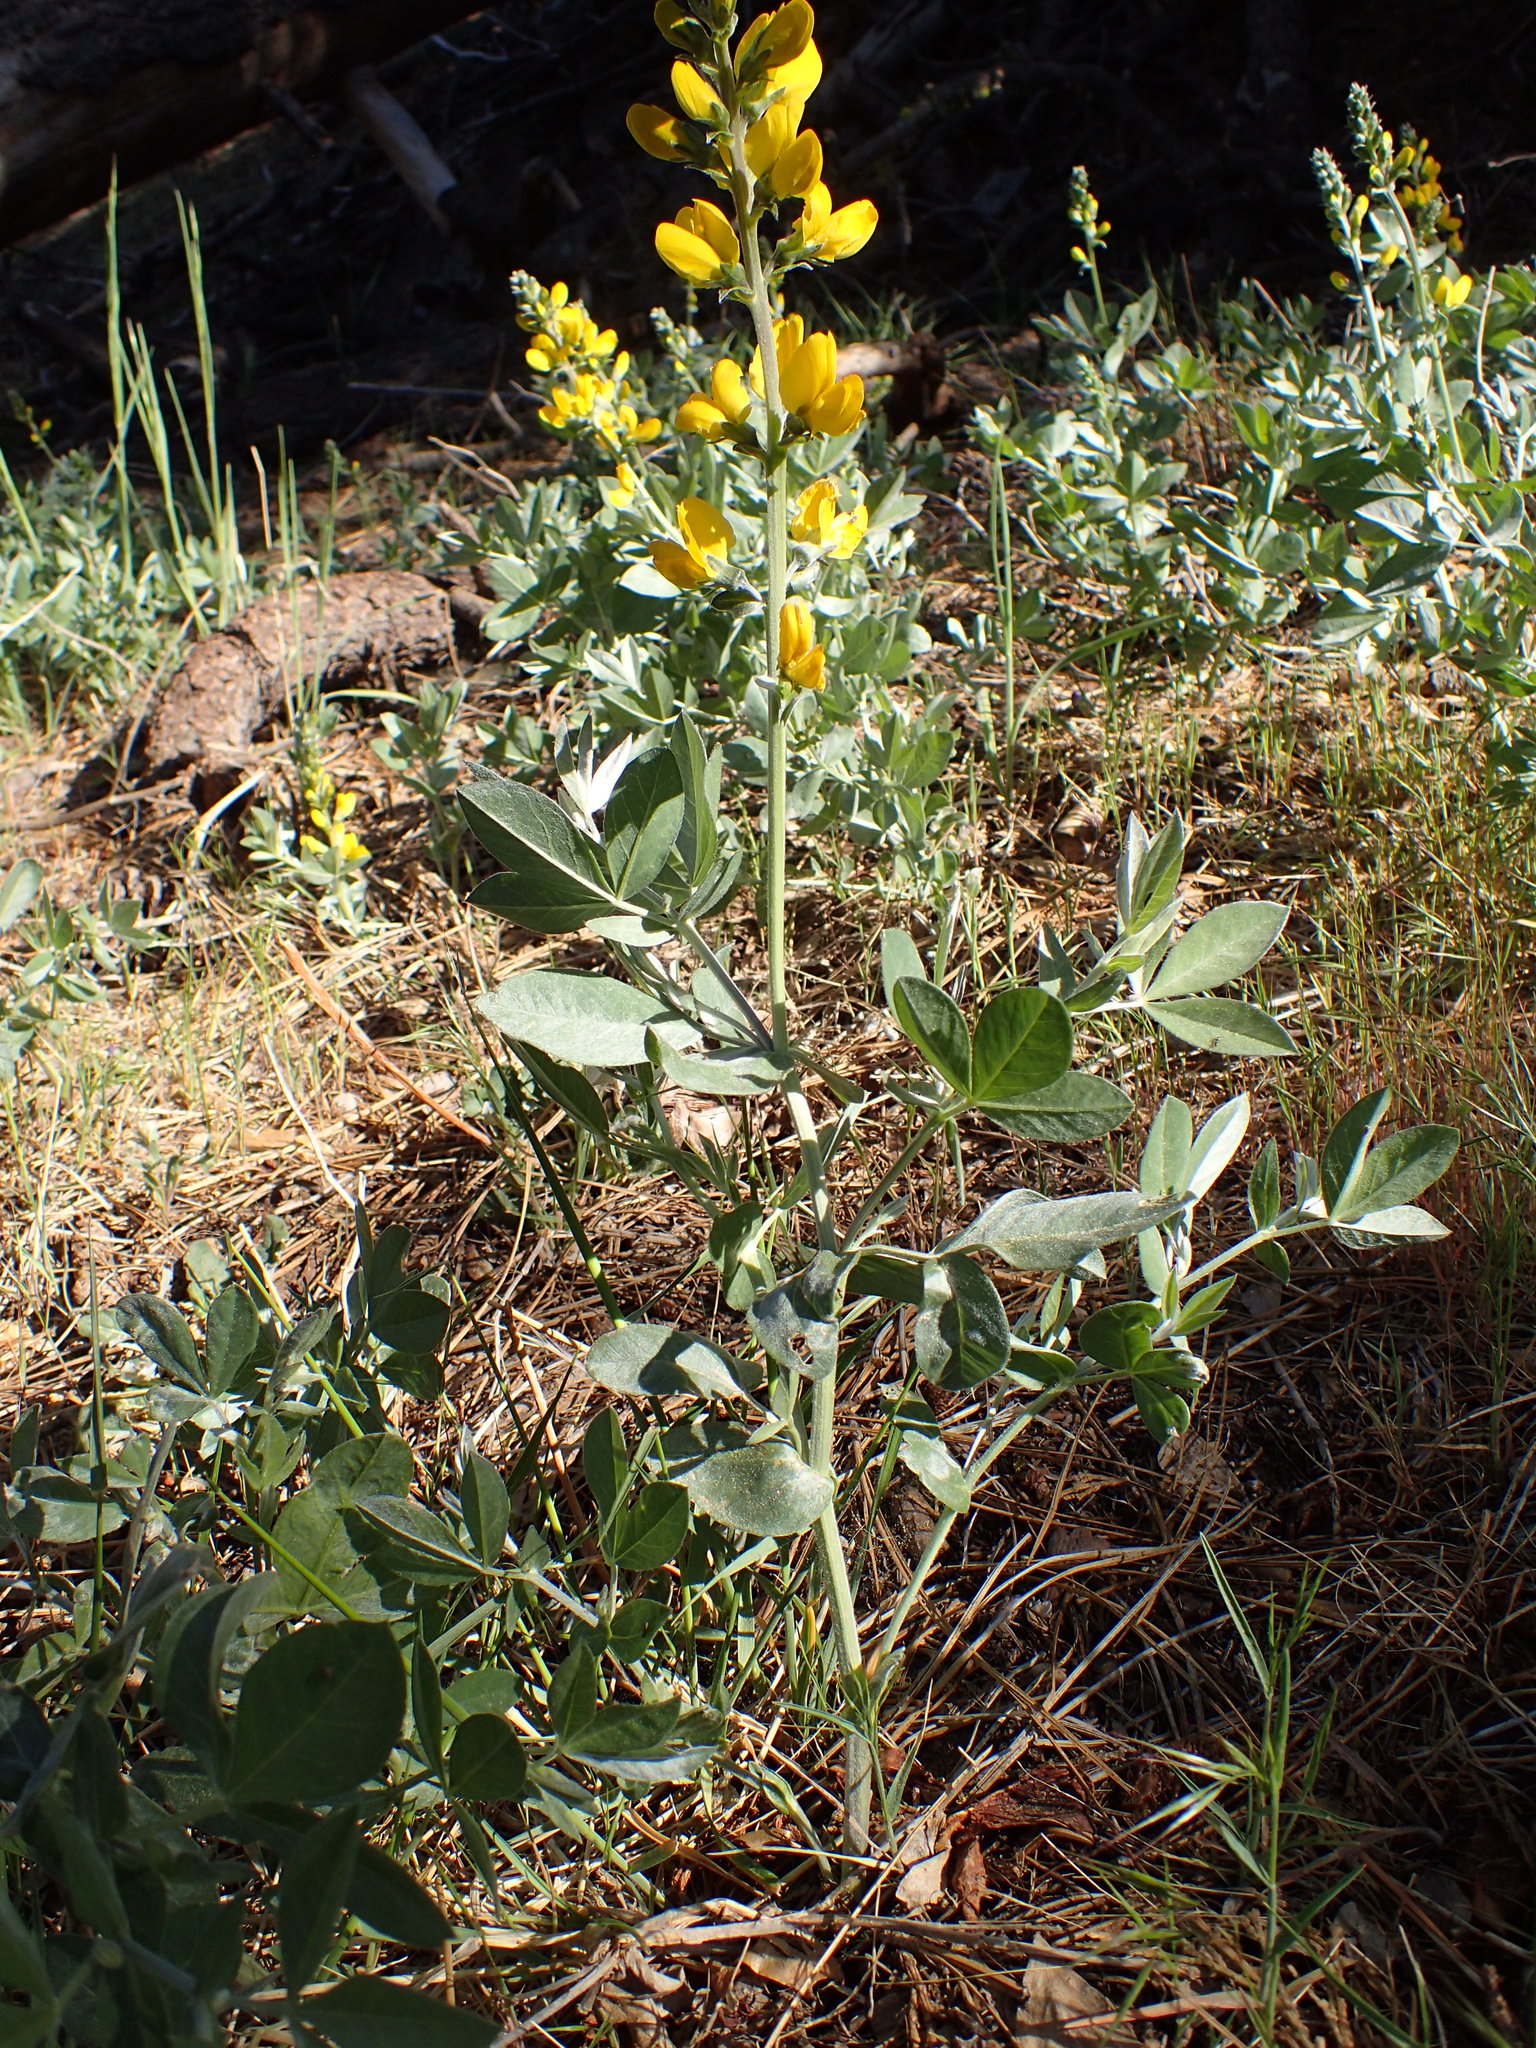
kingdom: Plantae
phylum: Tracheophyta
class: Magnoliopsida
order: Fabales
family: Fabaceae
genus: Thermopsis
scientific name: Thermopsis californica
